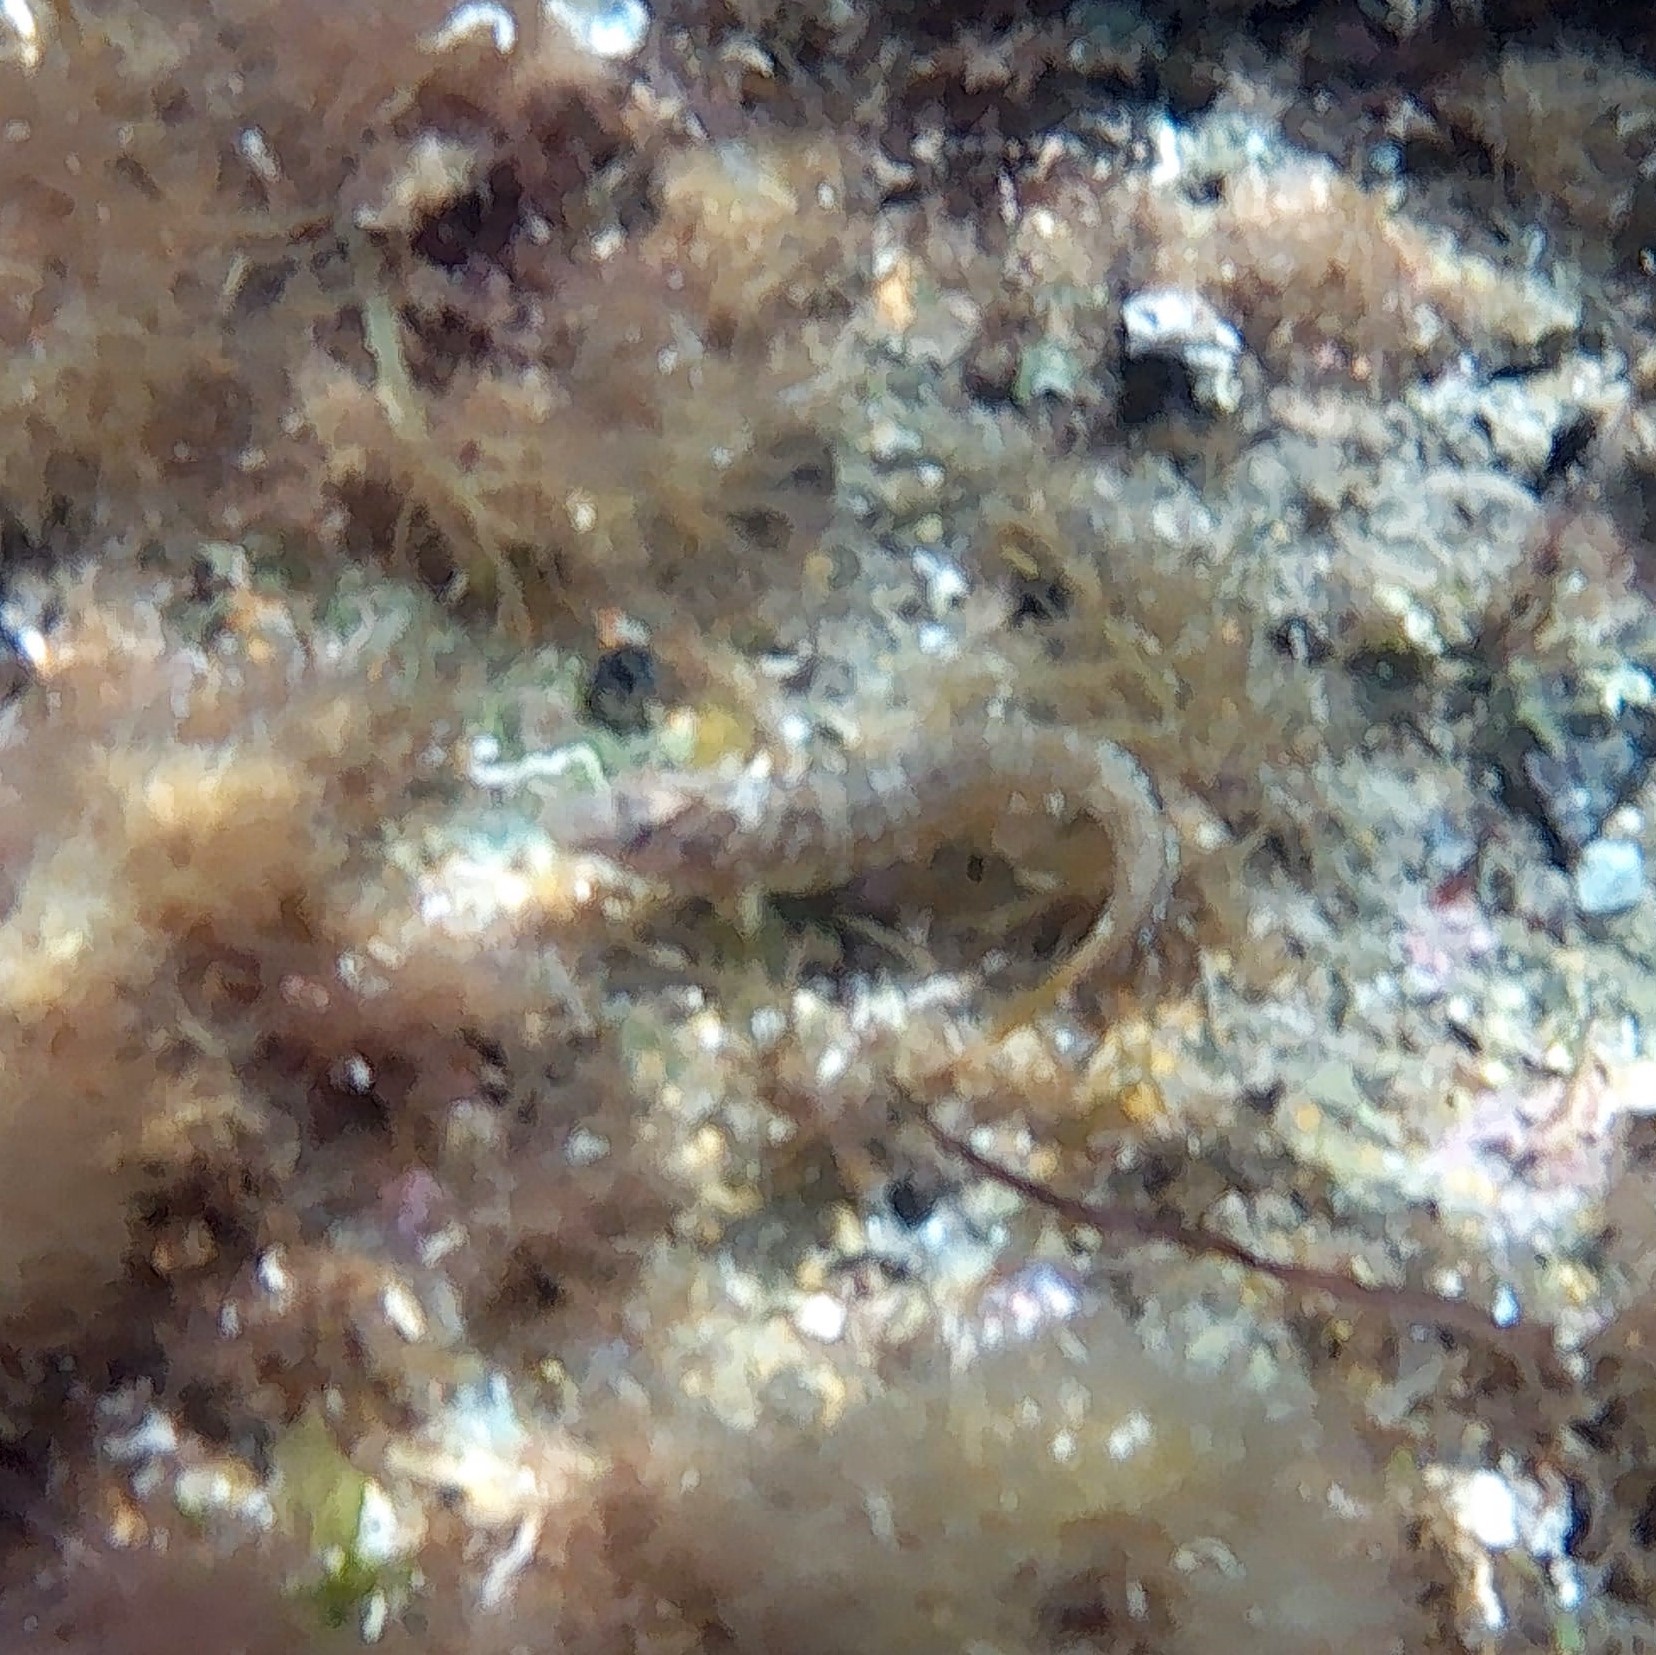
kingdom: Animalia
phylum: Chordata
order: Perciformes
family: Blenniidae
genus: Salaria
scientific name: Salaria pavo
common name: Peacock blenny
